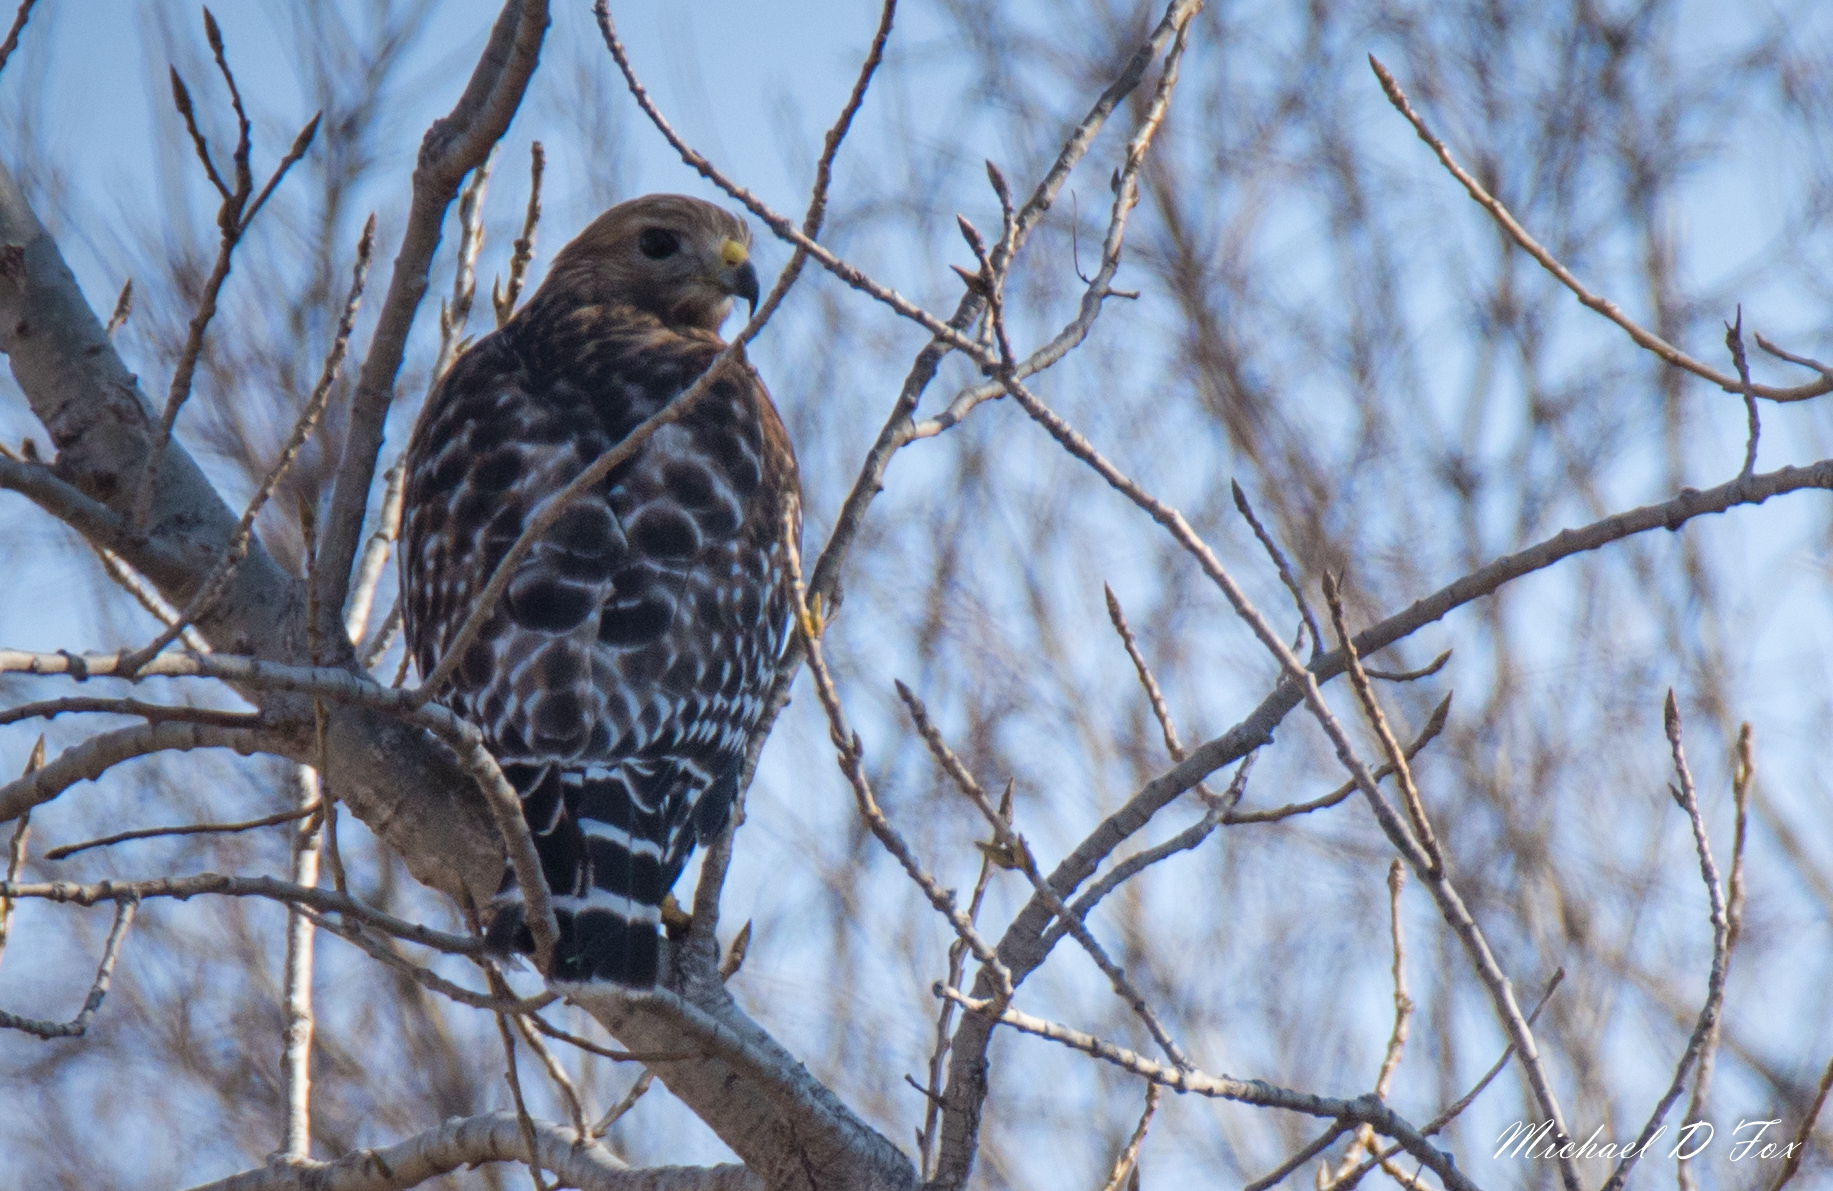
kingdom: Animalia
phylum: Chordata
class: Aves
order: Accipitriformes
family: Accipitridae
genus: Buteo
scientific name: Buteo lineatus
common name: Red-shouldered hawk
